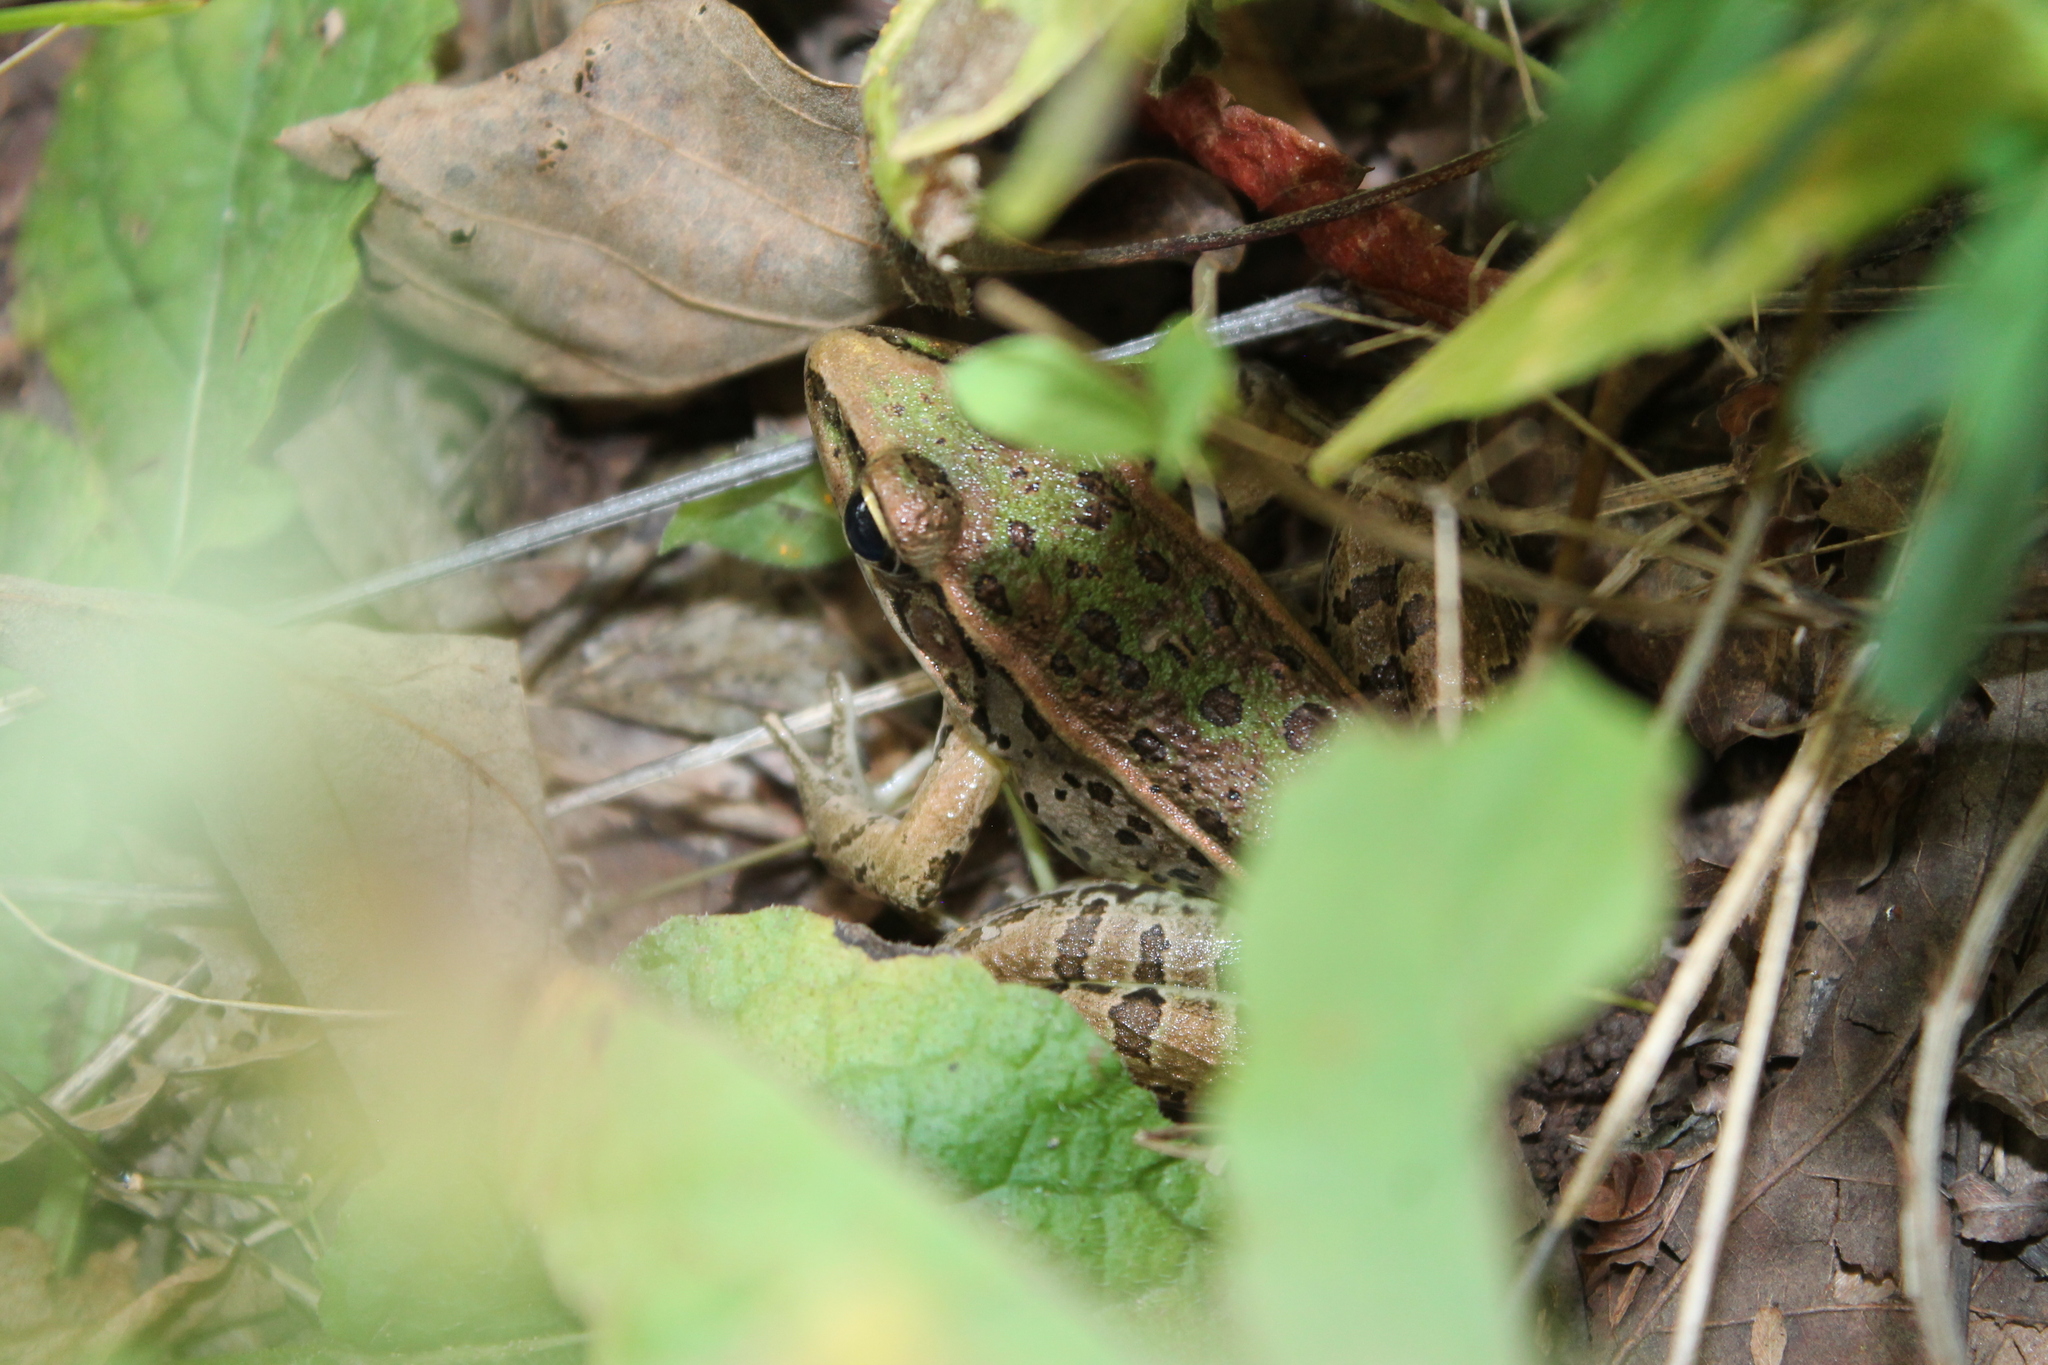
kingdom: Animalia
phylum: Chordata
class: Amphibia
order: Anura
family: Ranidae
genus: Lithobates
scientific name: Lithobates sphenocephalus
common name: Southern leopard frog
